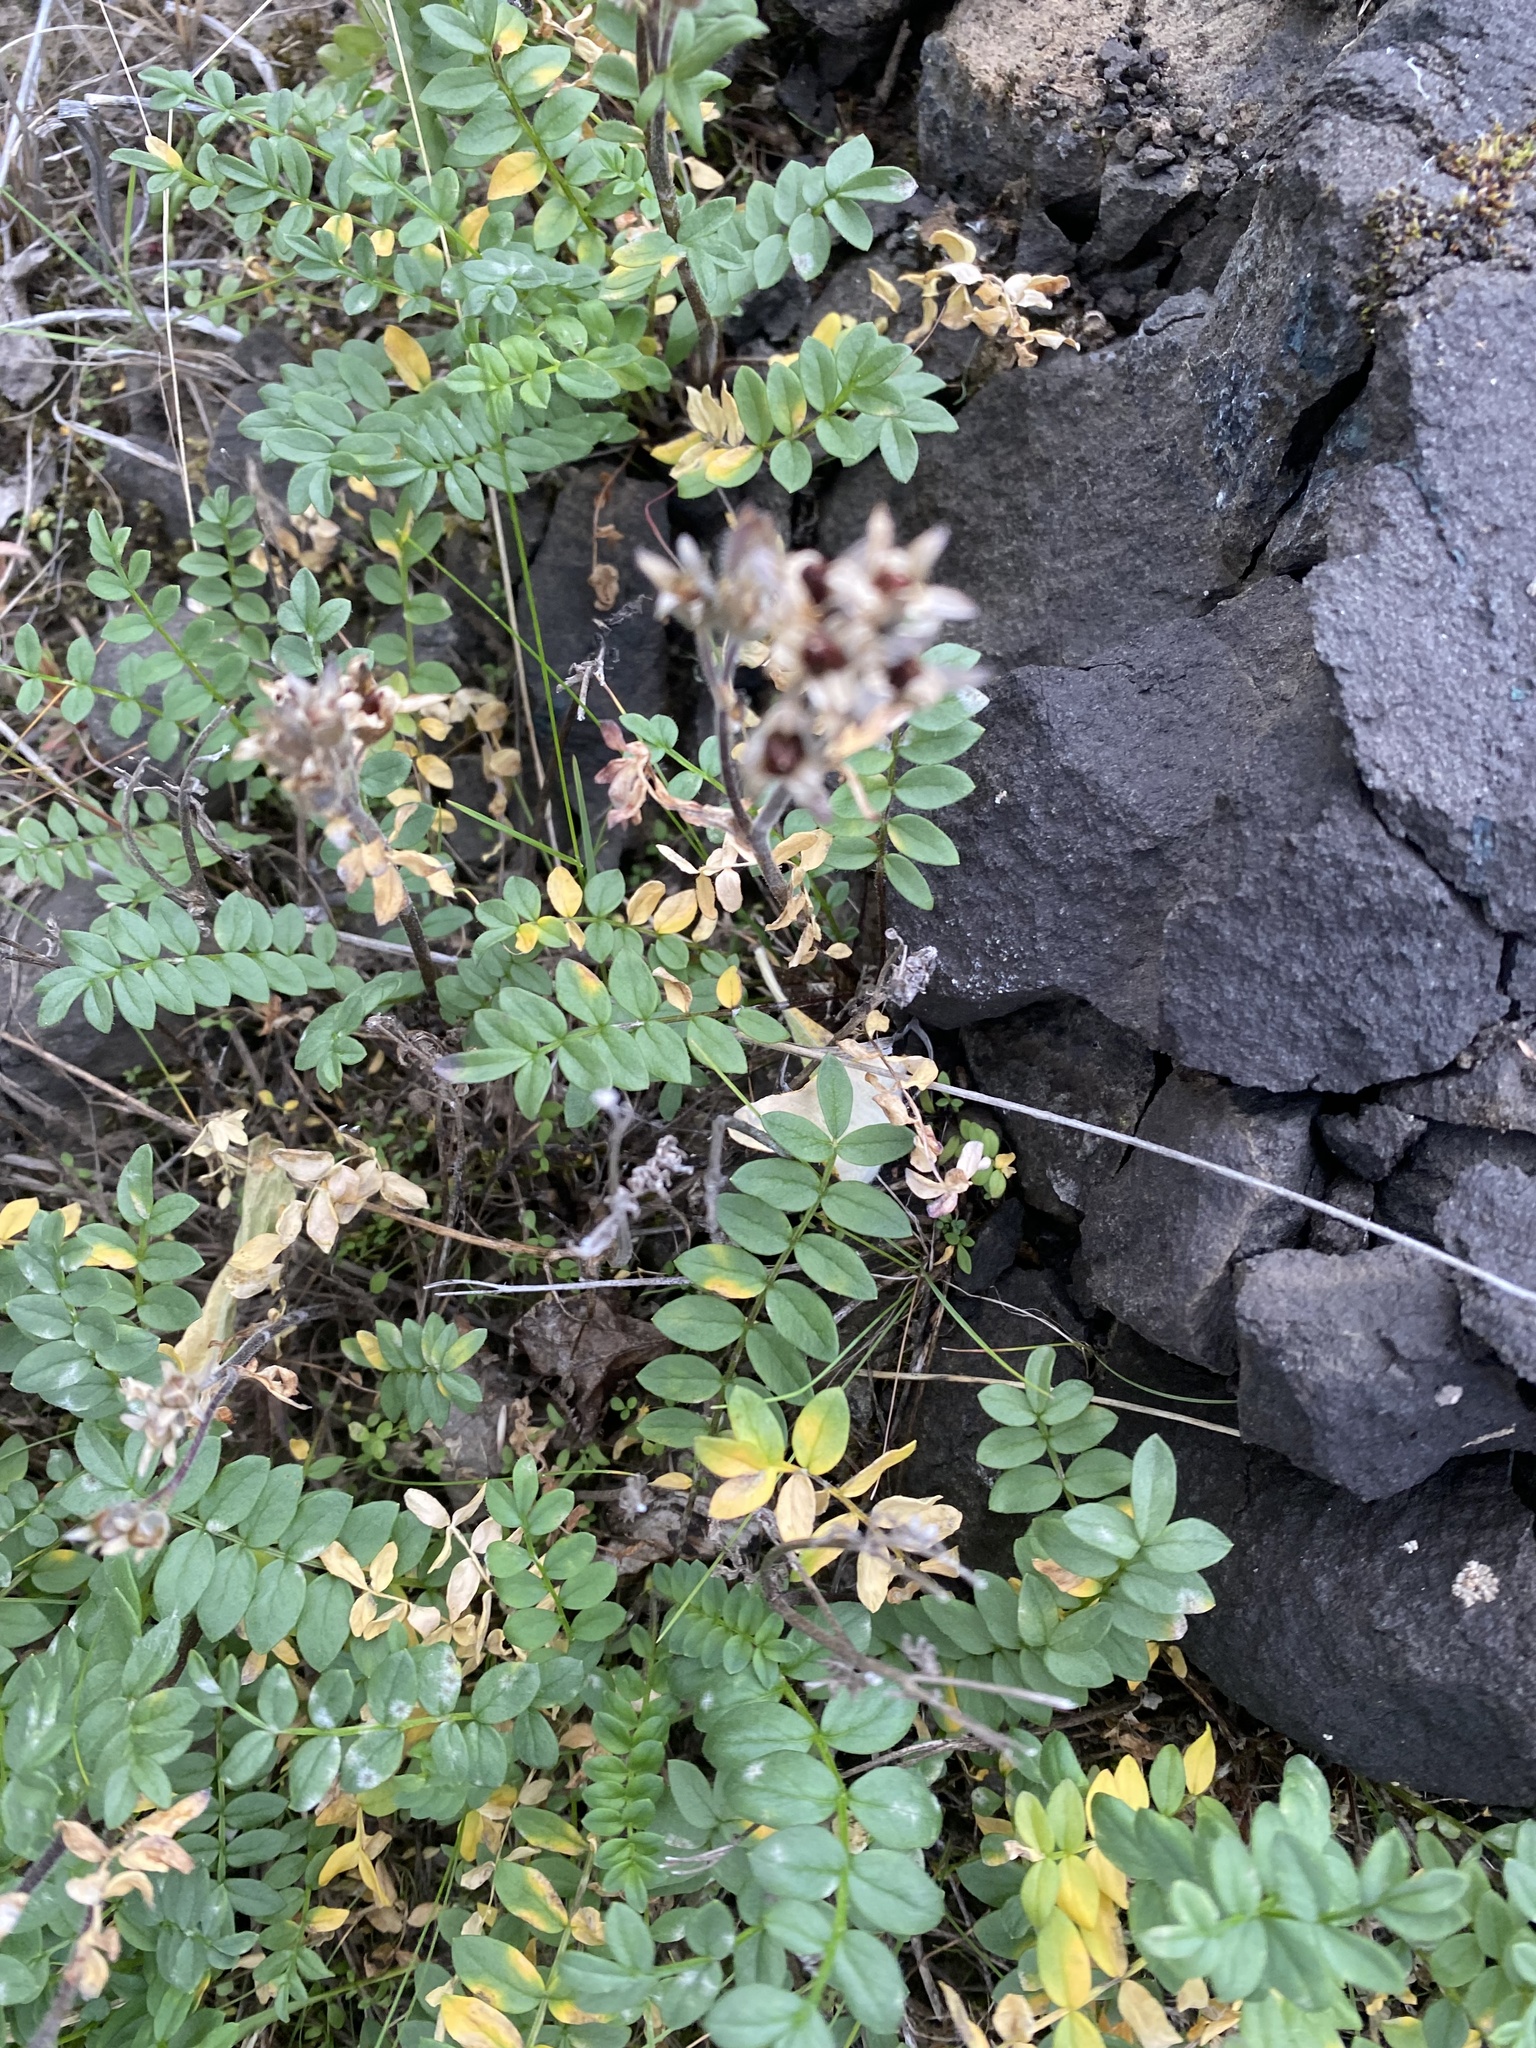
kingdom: Plantae
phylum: Tracheophyta
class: Magnoliopsida
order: Ericales
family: Polemoniaceae
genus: Polemonium
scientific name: Polemonium boreale
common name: Boreal jacob's-ladder
